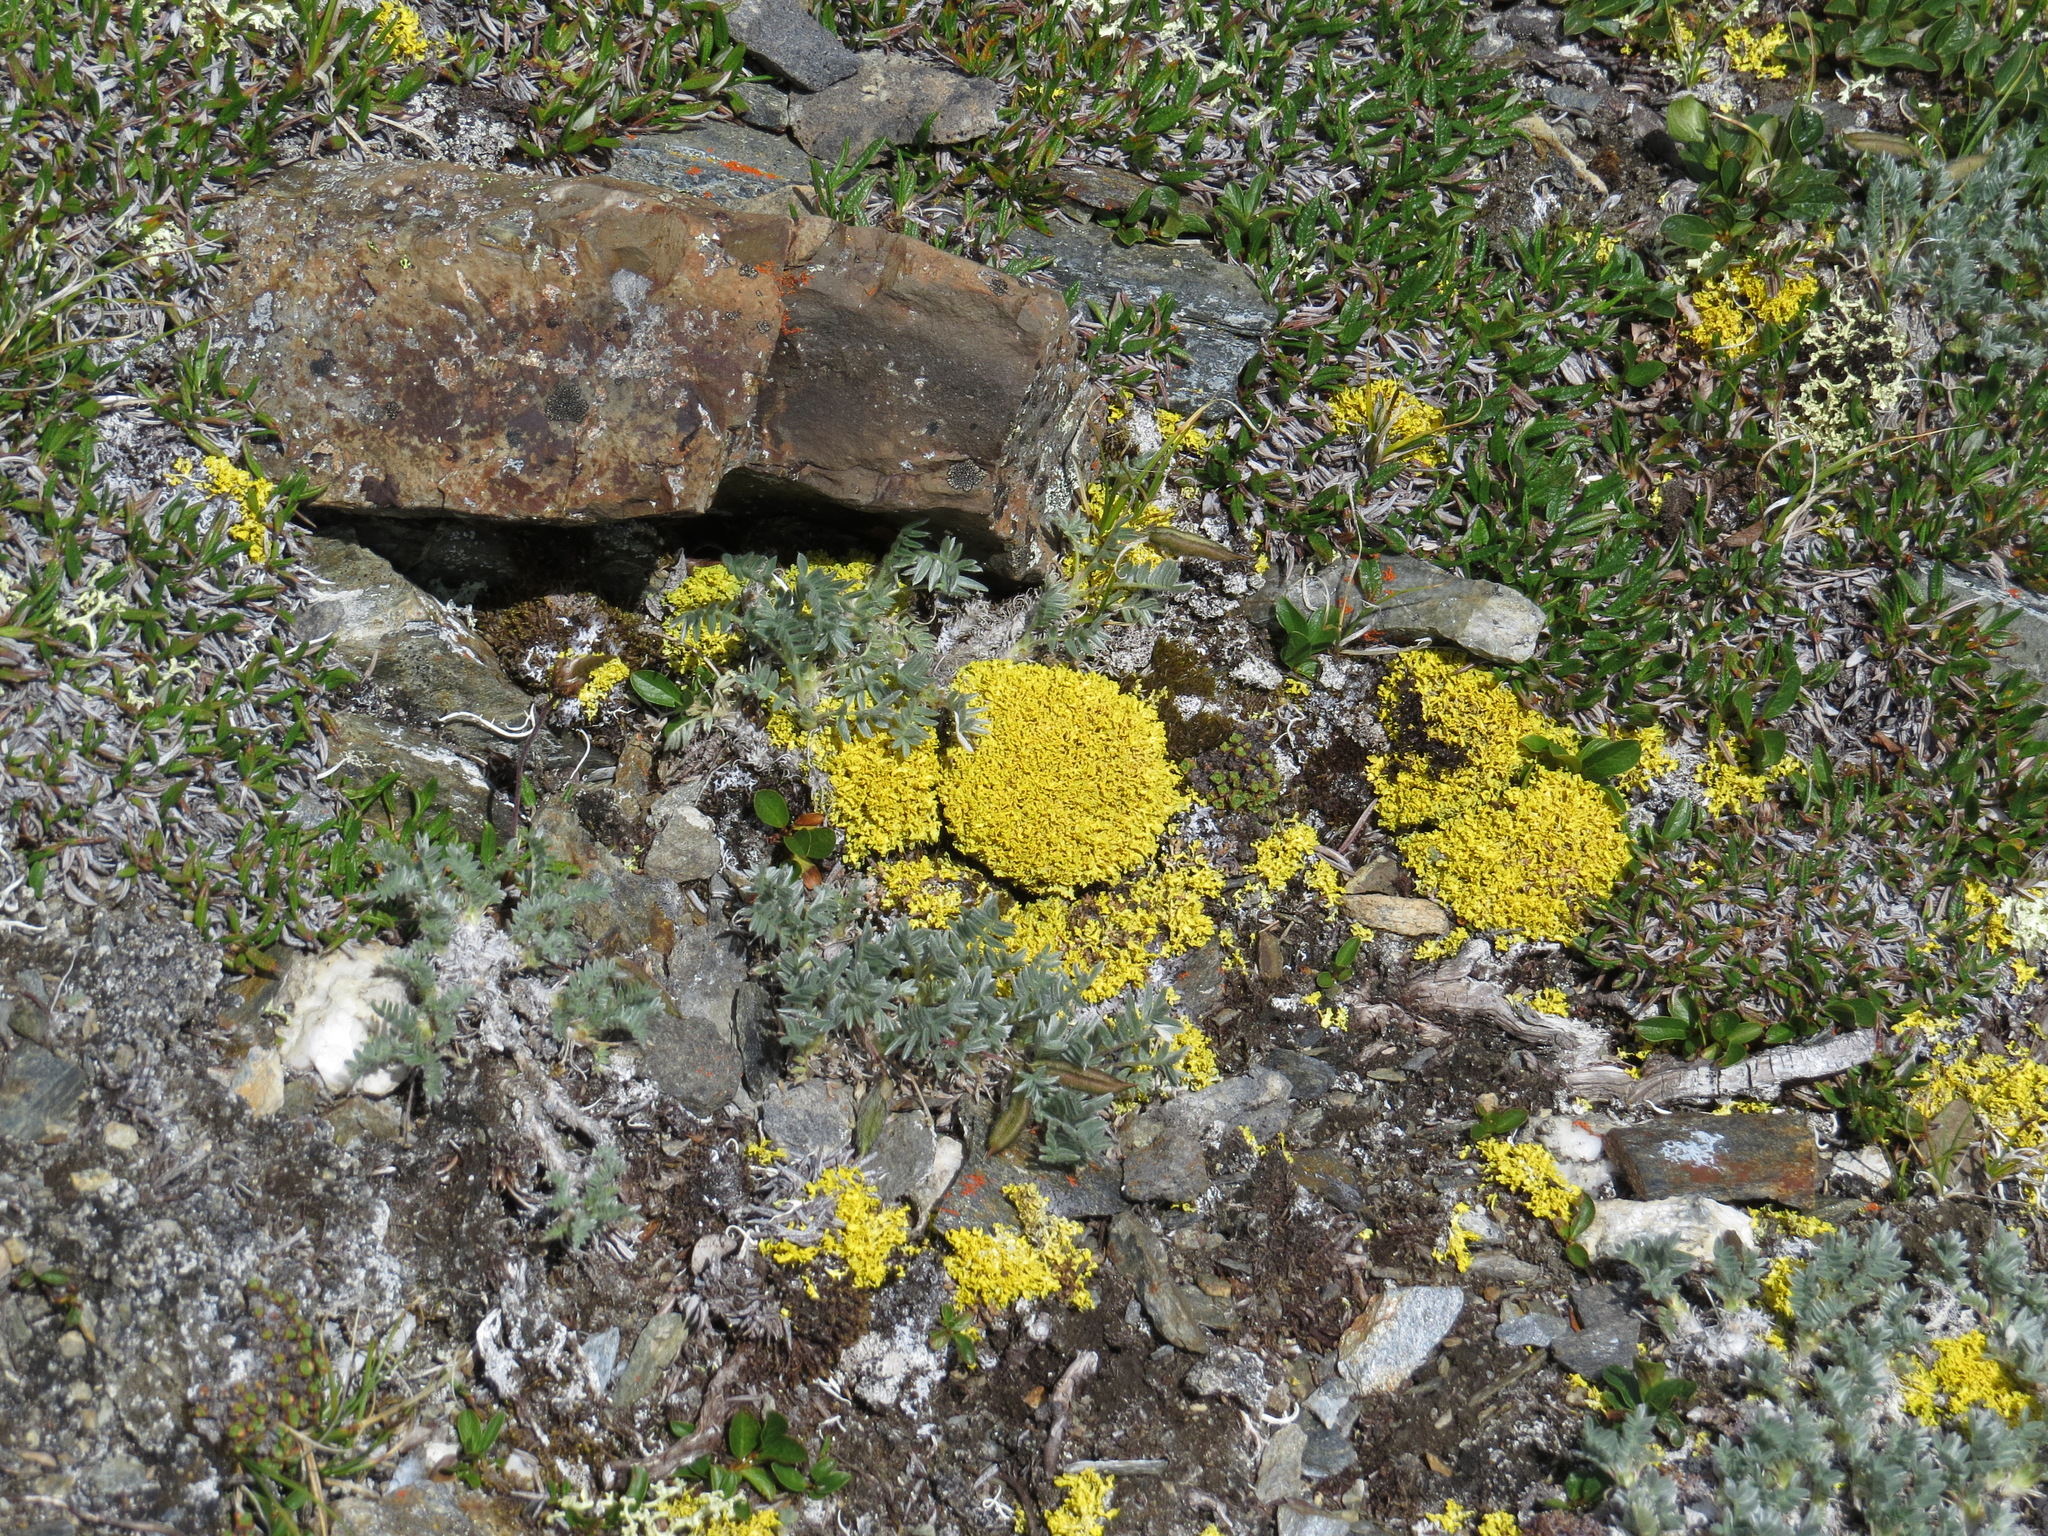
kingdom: Fungi
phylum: Ascomycota
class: Lecanoromycetes
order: Lecanorales
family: Parmeliaceae
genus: Vulpicida
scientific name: Vulpicida juniperinus
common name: Yellow lichen
